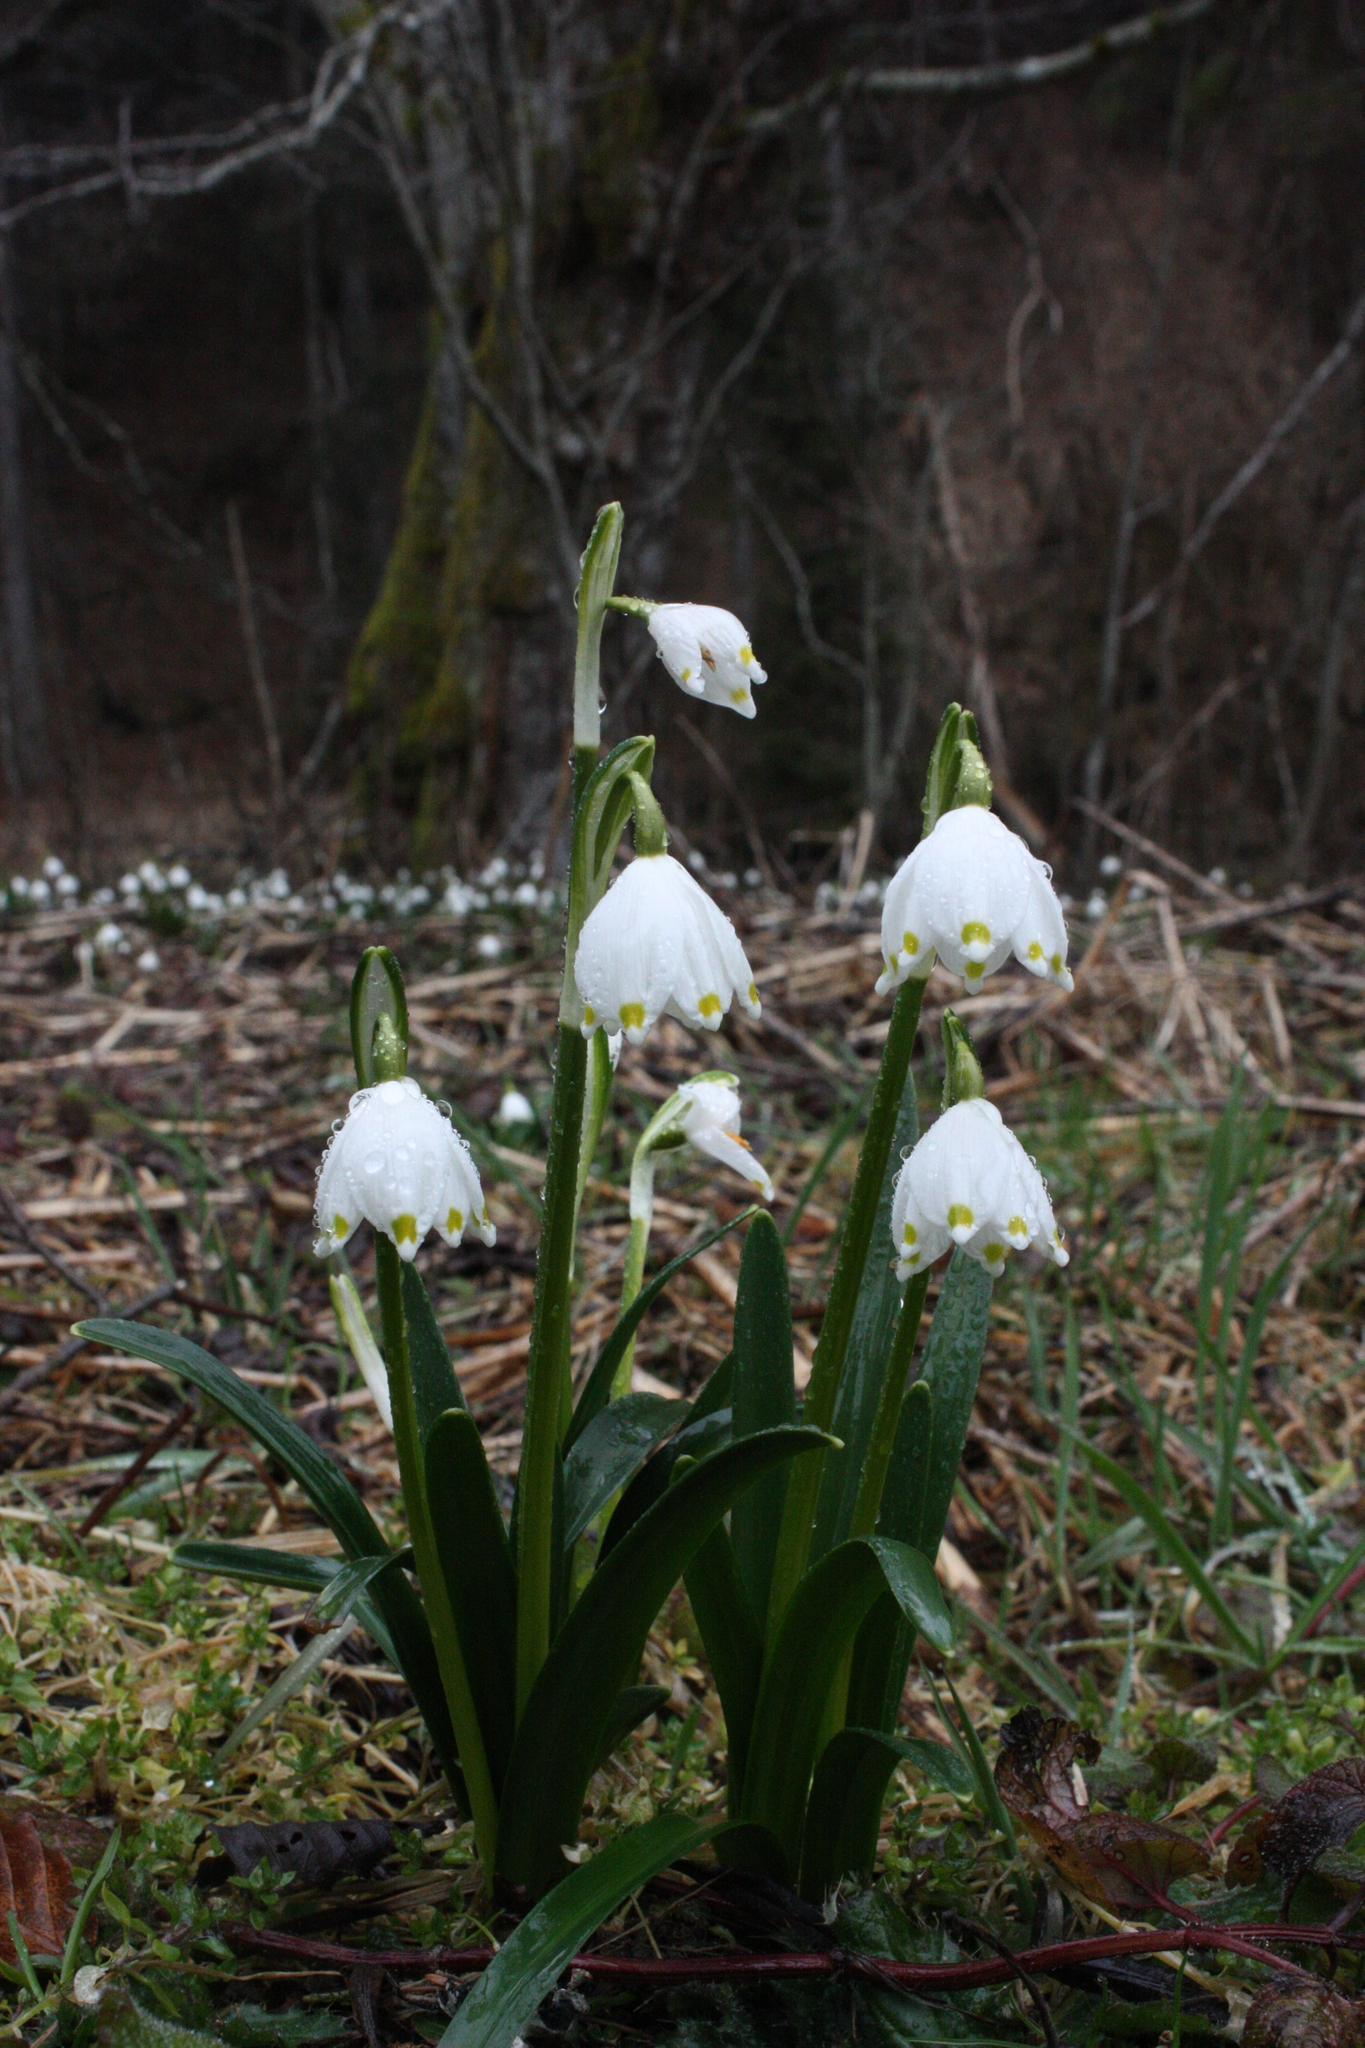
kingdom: Plantae
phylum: Tracheophyta
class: Liliopsida
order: Asparagales
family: Amaryllidaceae
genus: Leucojum
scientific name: Leucojum vernum
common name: Spring snowflake
